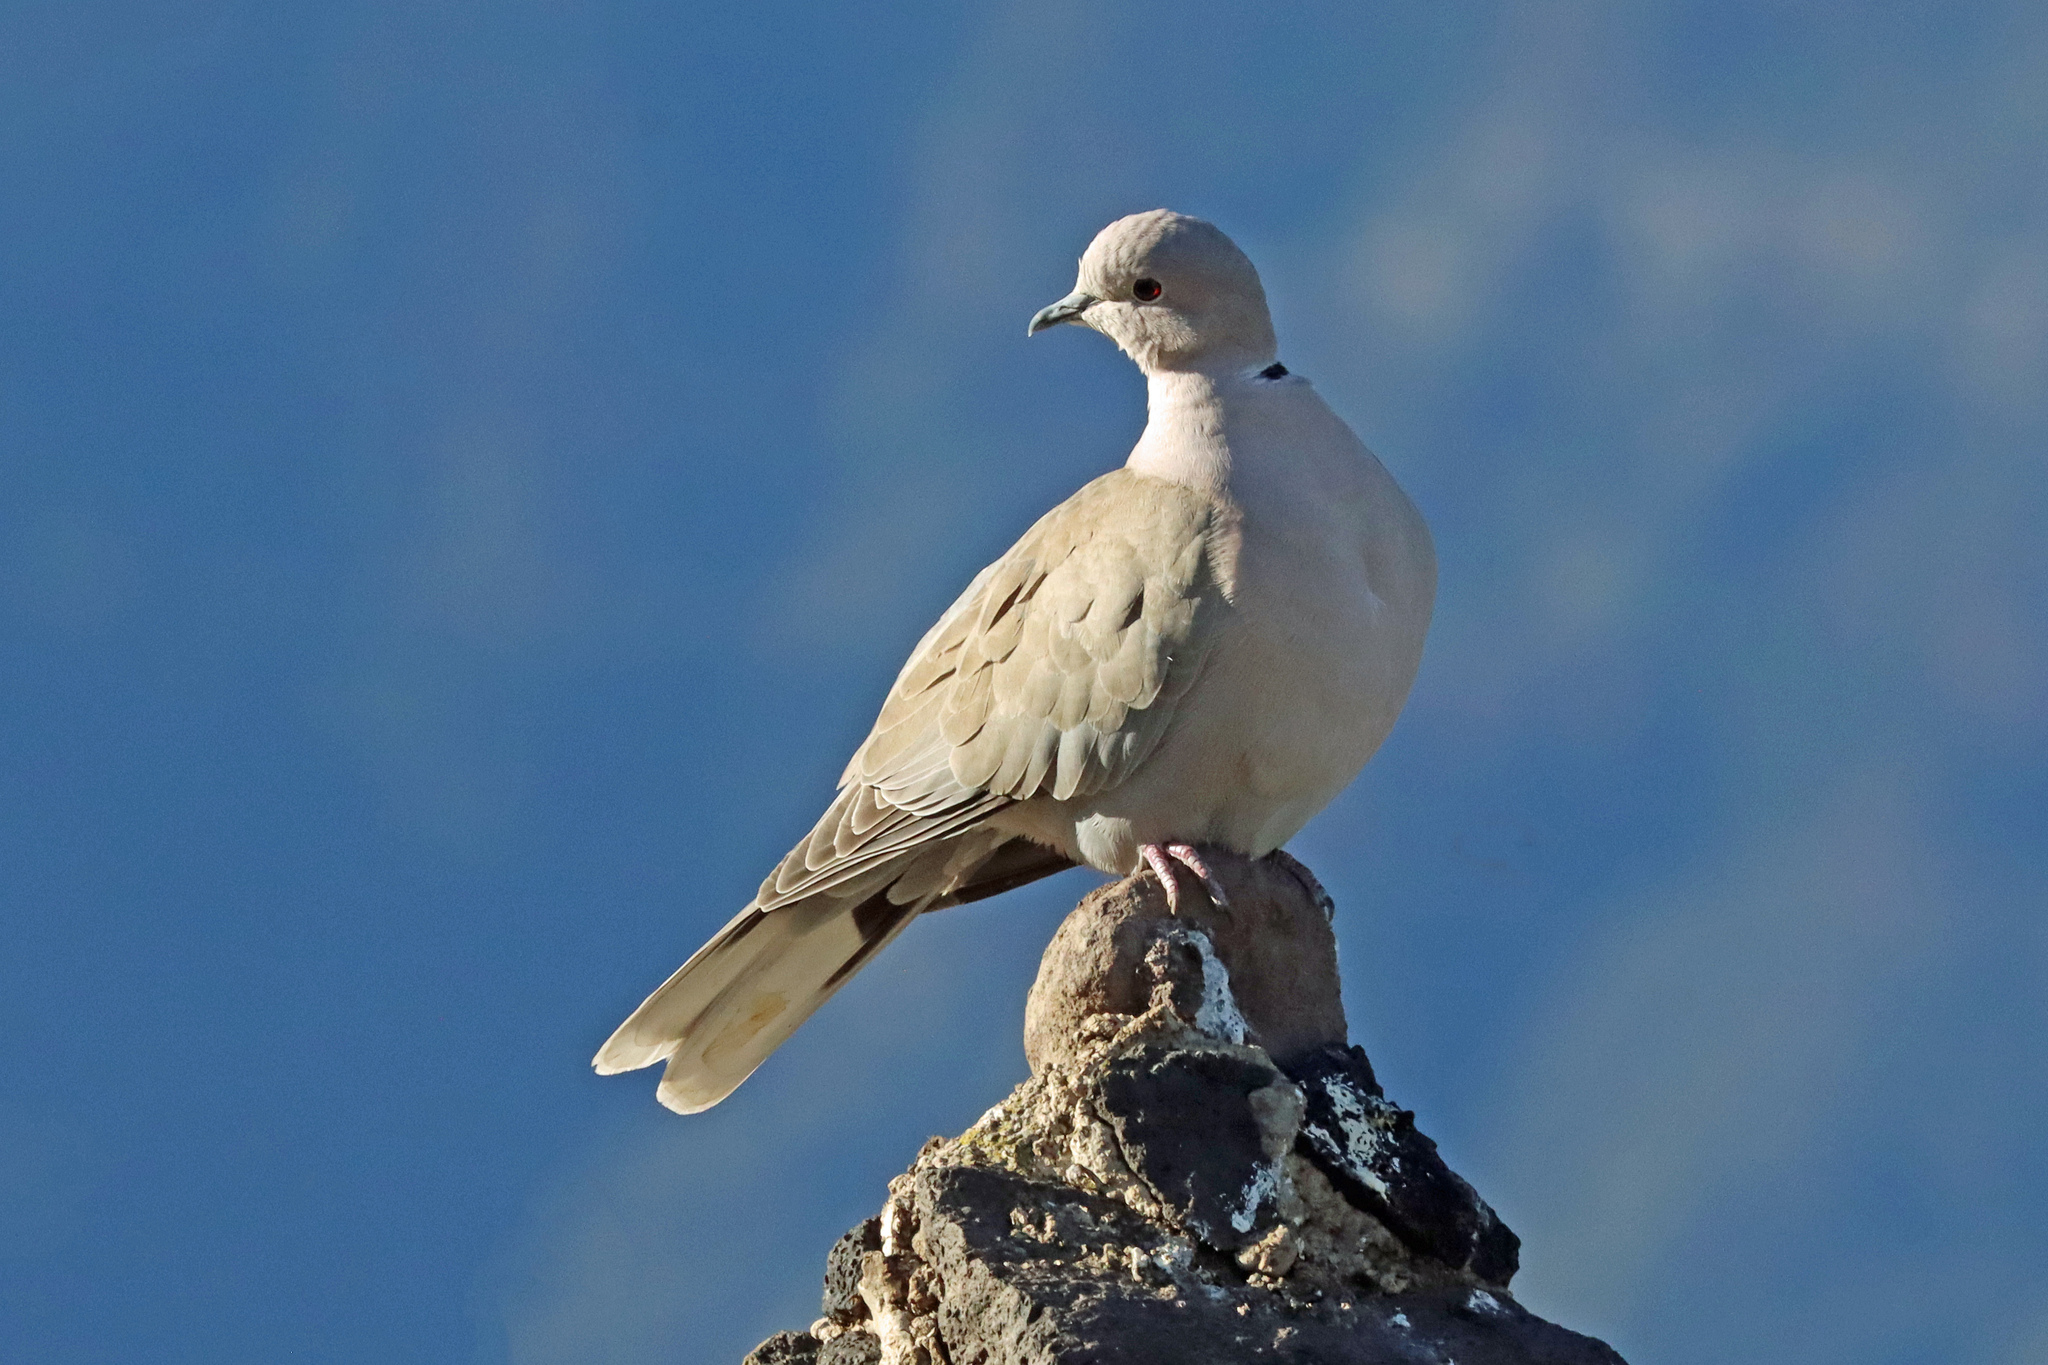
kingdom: Animalia
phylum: Chordata
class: Aves
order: Columbiformes
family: Columbidae
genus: Streptopelia
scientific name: Streptopelia decaocto
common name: Eurasian collared dove
